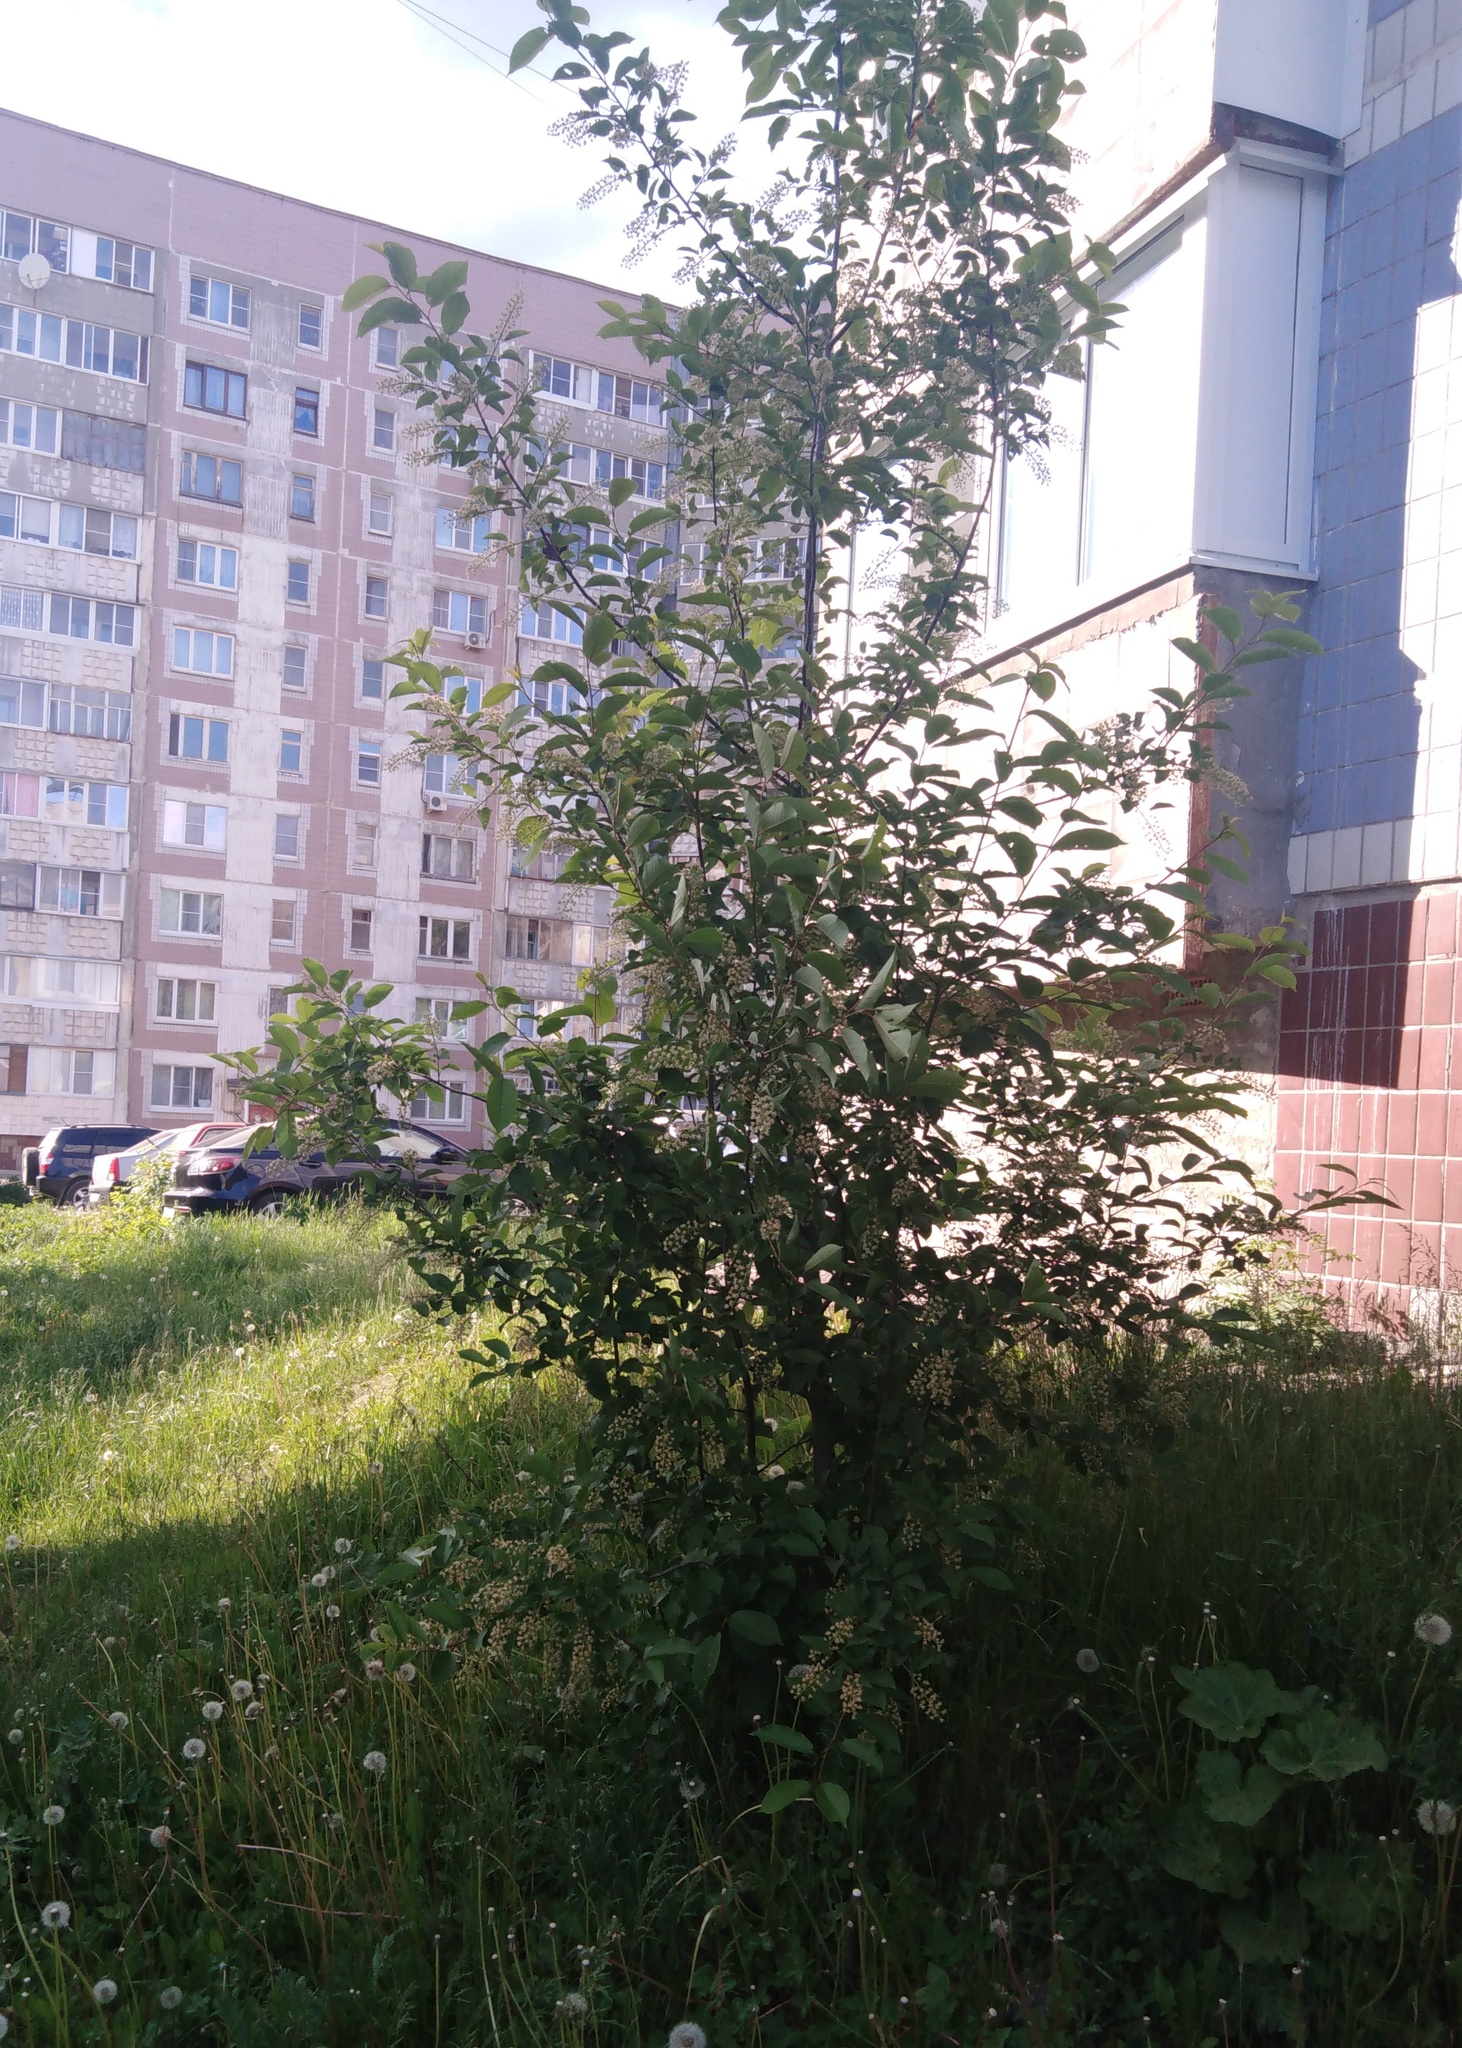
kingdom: Plantae
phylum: Tracheophyta
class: Magnoliopsida
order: Rosales
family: Rosaceae
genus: Prunus
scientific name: Prunus padus
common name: Bird cherry
